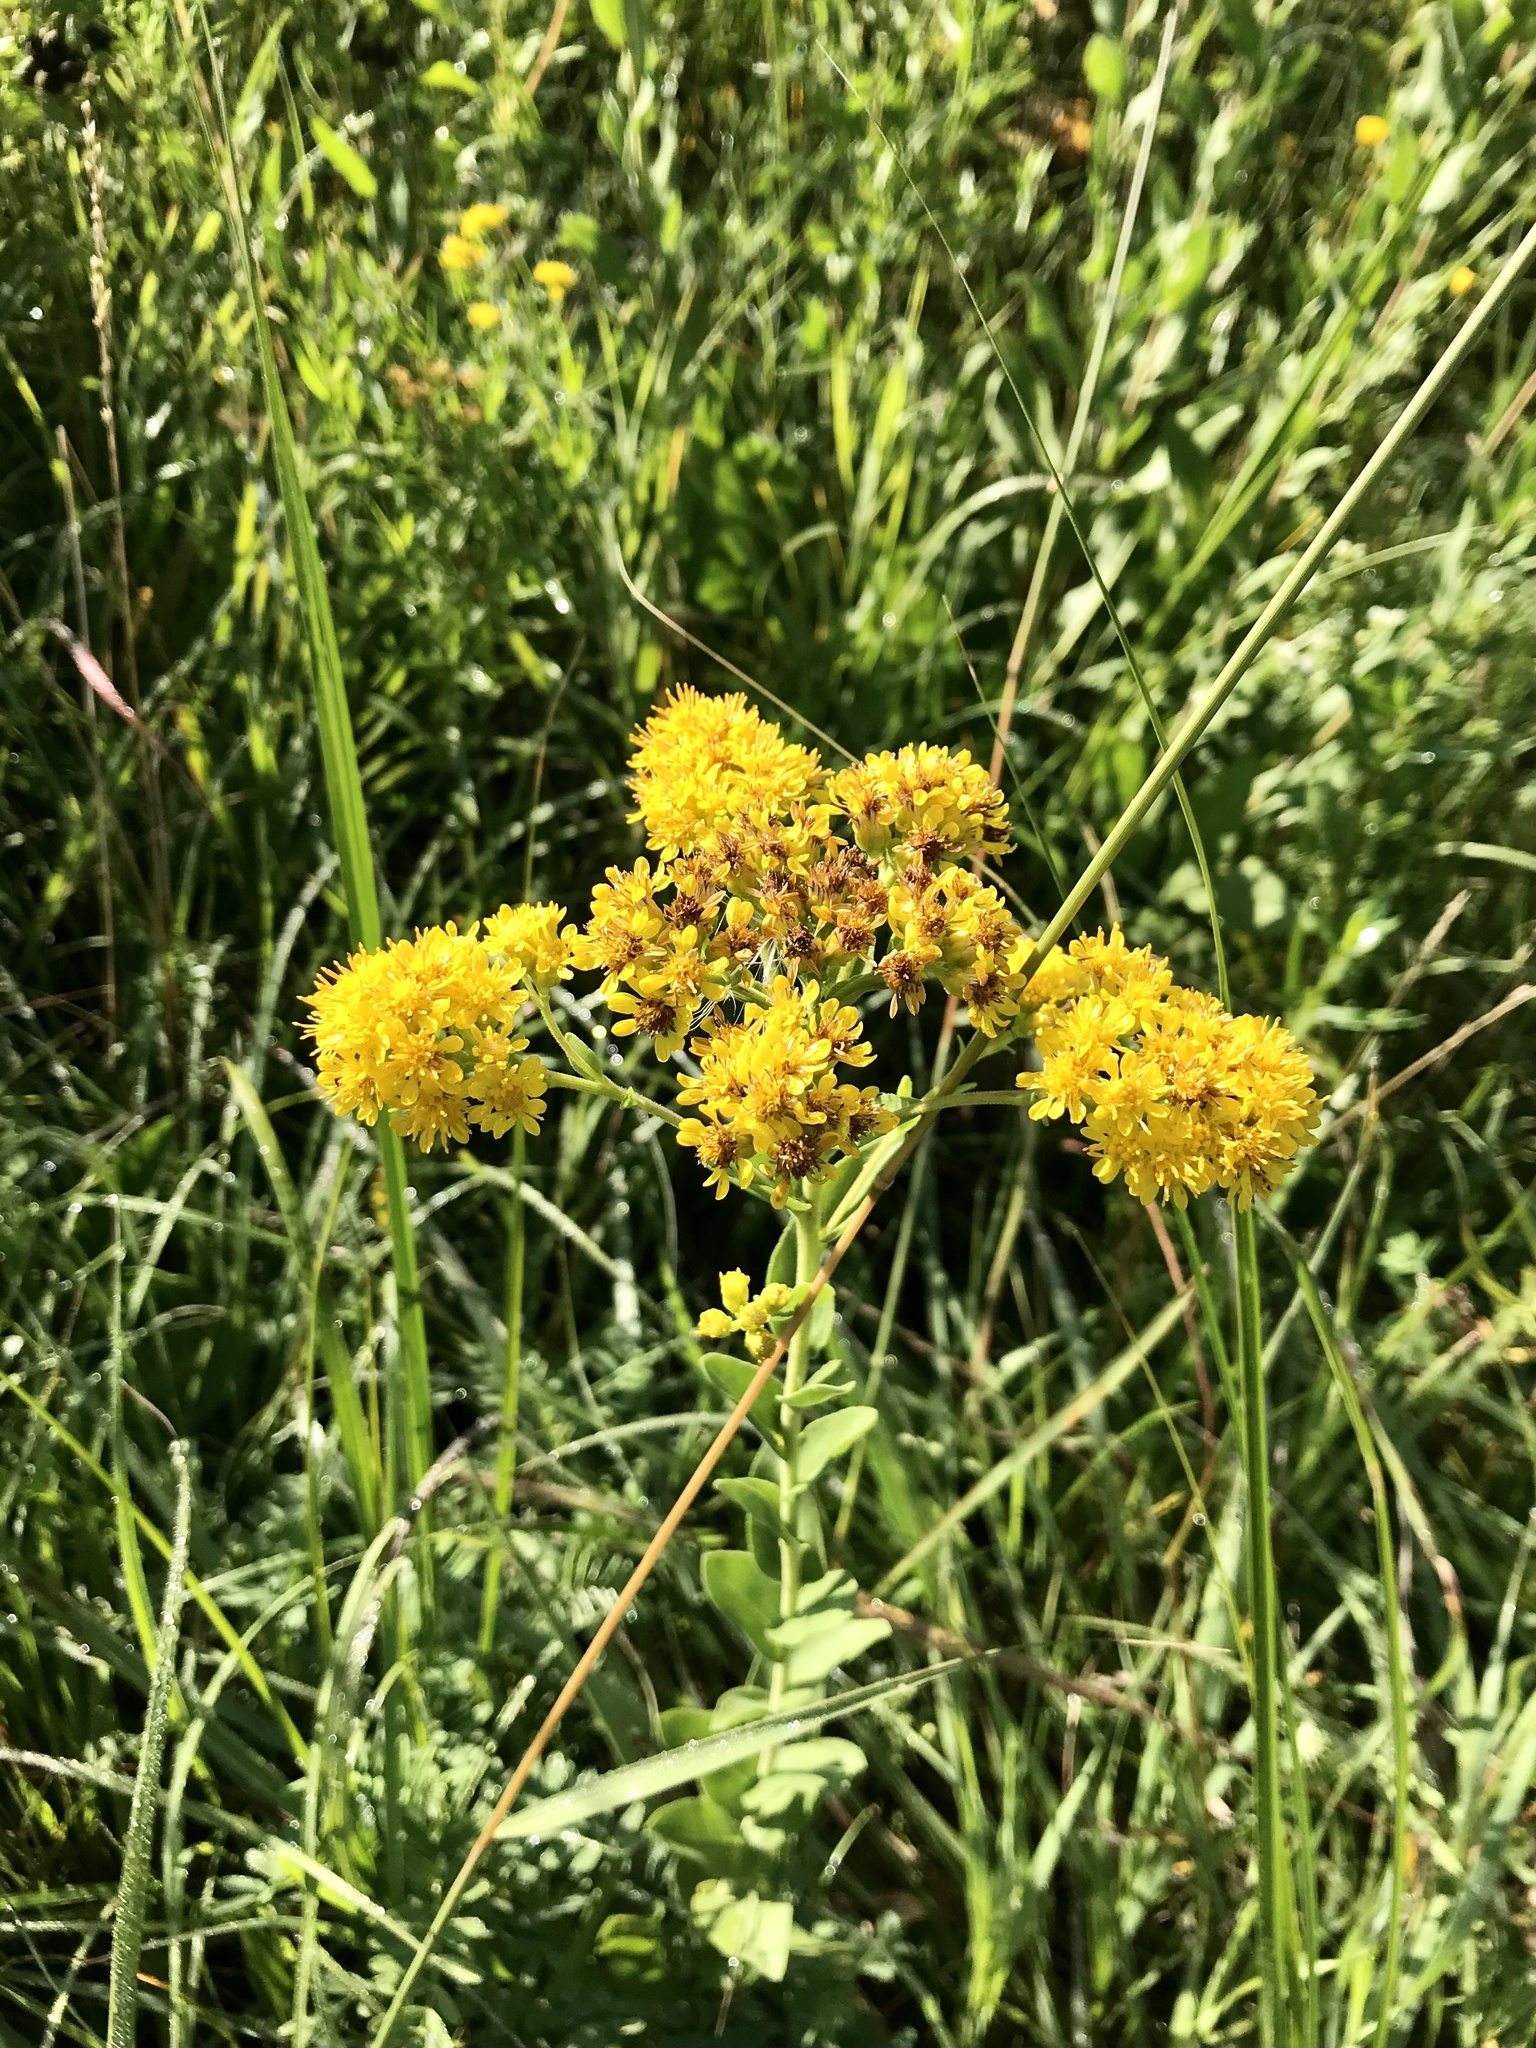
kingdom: Plantae
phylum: Tracheophyta
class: Magnoliopsida
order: Asterales
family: Asteraceae
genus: Solidago
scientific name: Solidago rigida
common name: Rigid goldenrod
